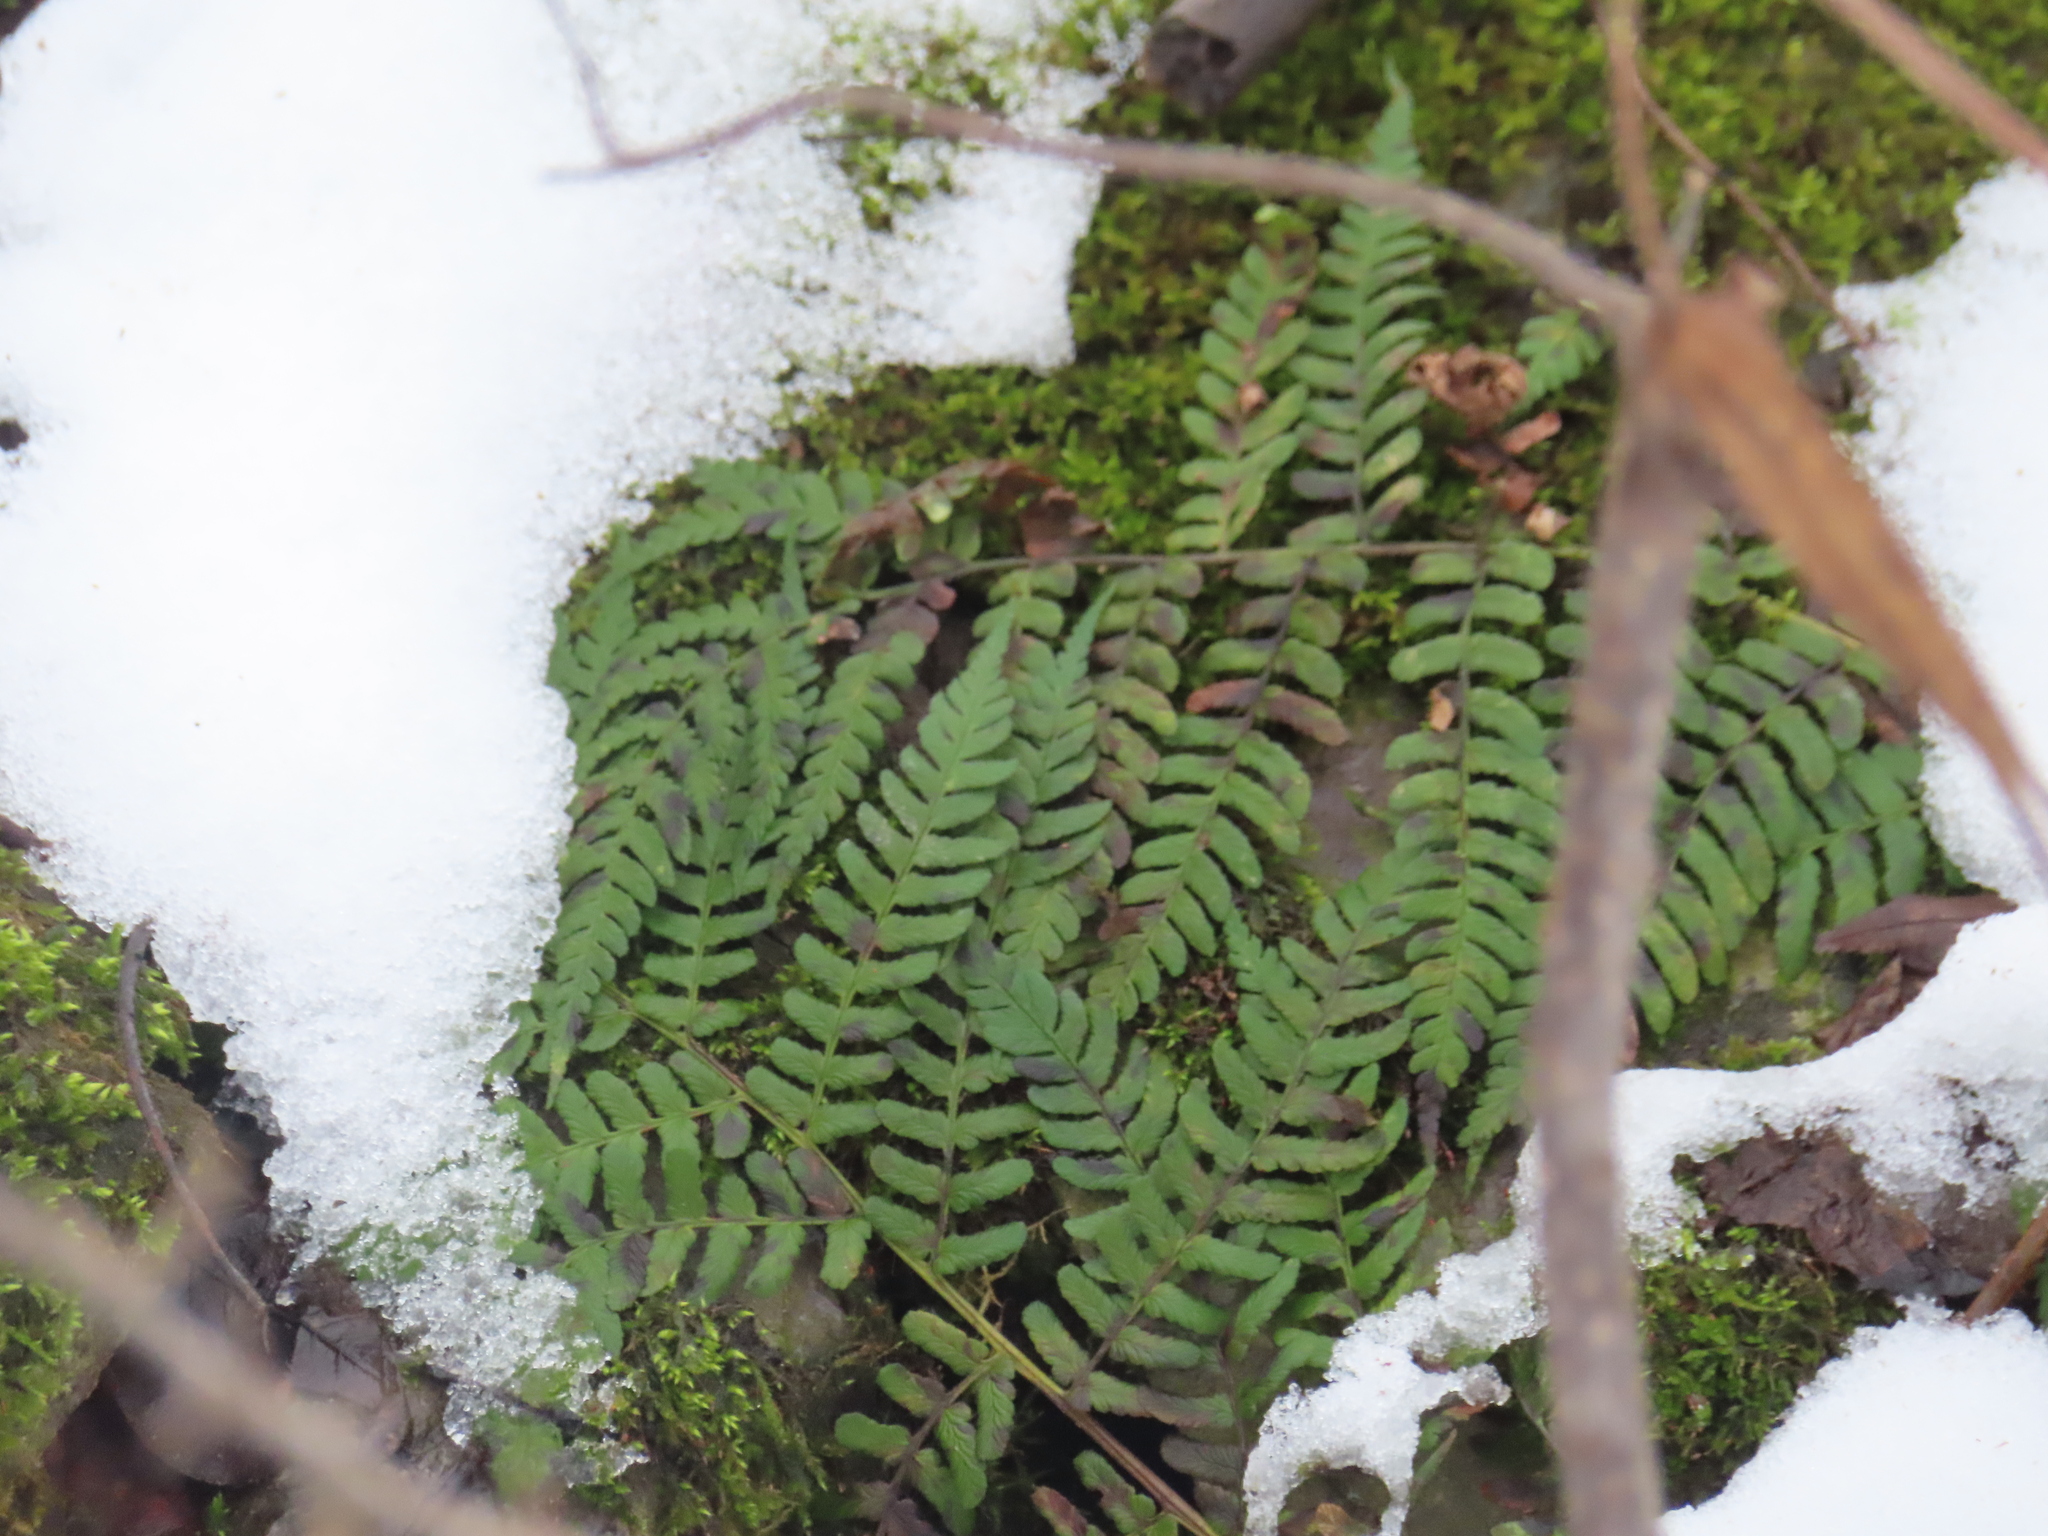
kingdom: Plantae
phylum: Tracheophyta
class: Polypodiopsida
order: Polypodiales
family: Dryopteridaceae
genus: Dryopteris
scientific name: Dryopteris marginalis
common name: Marginal wood fern
